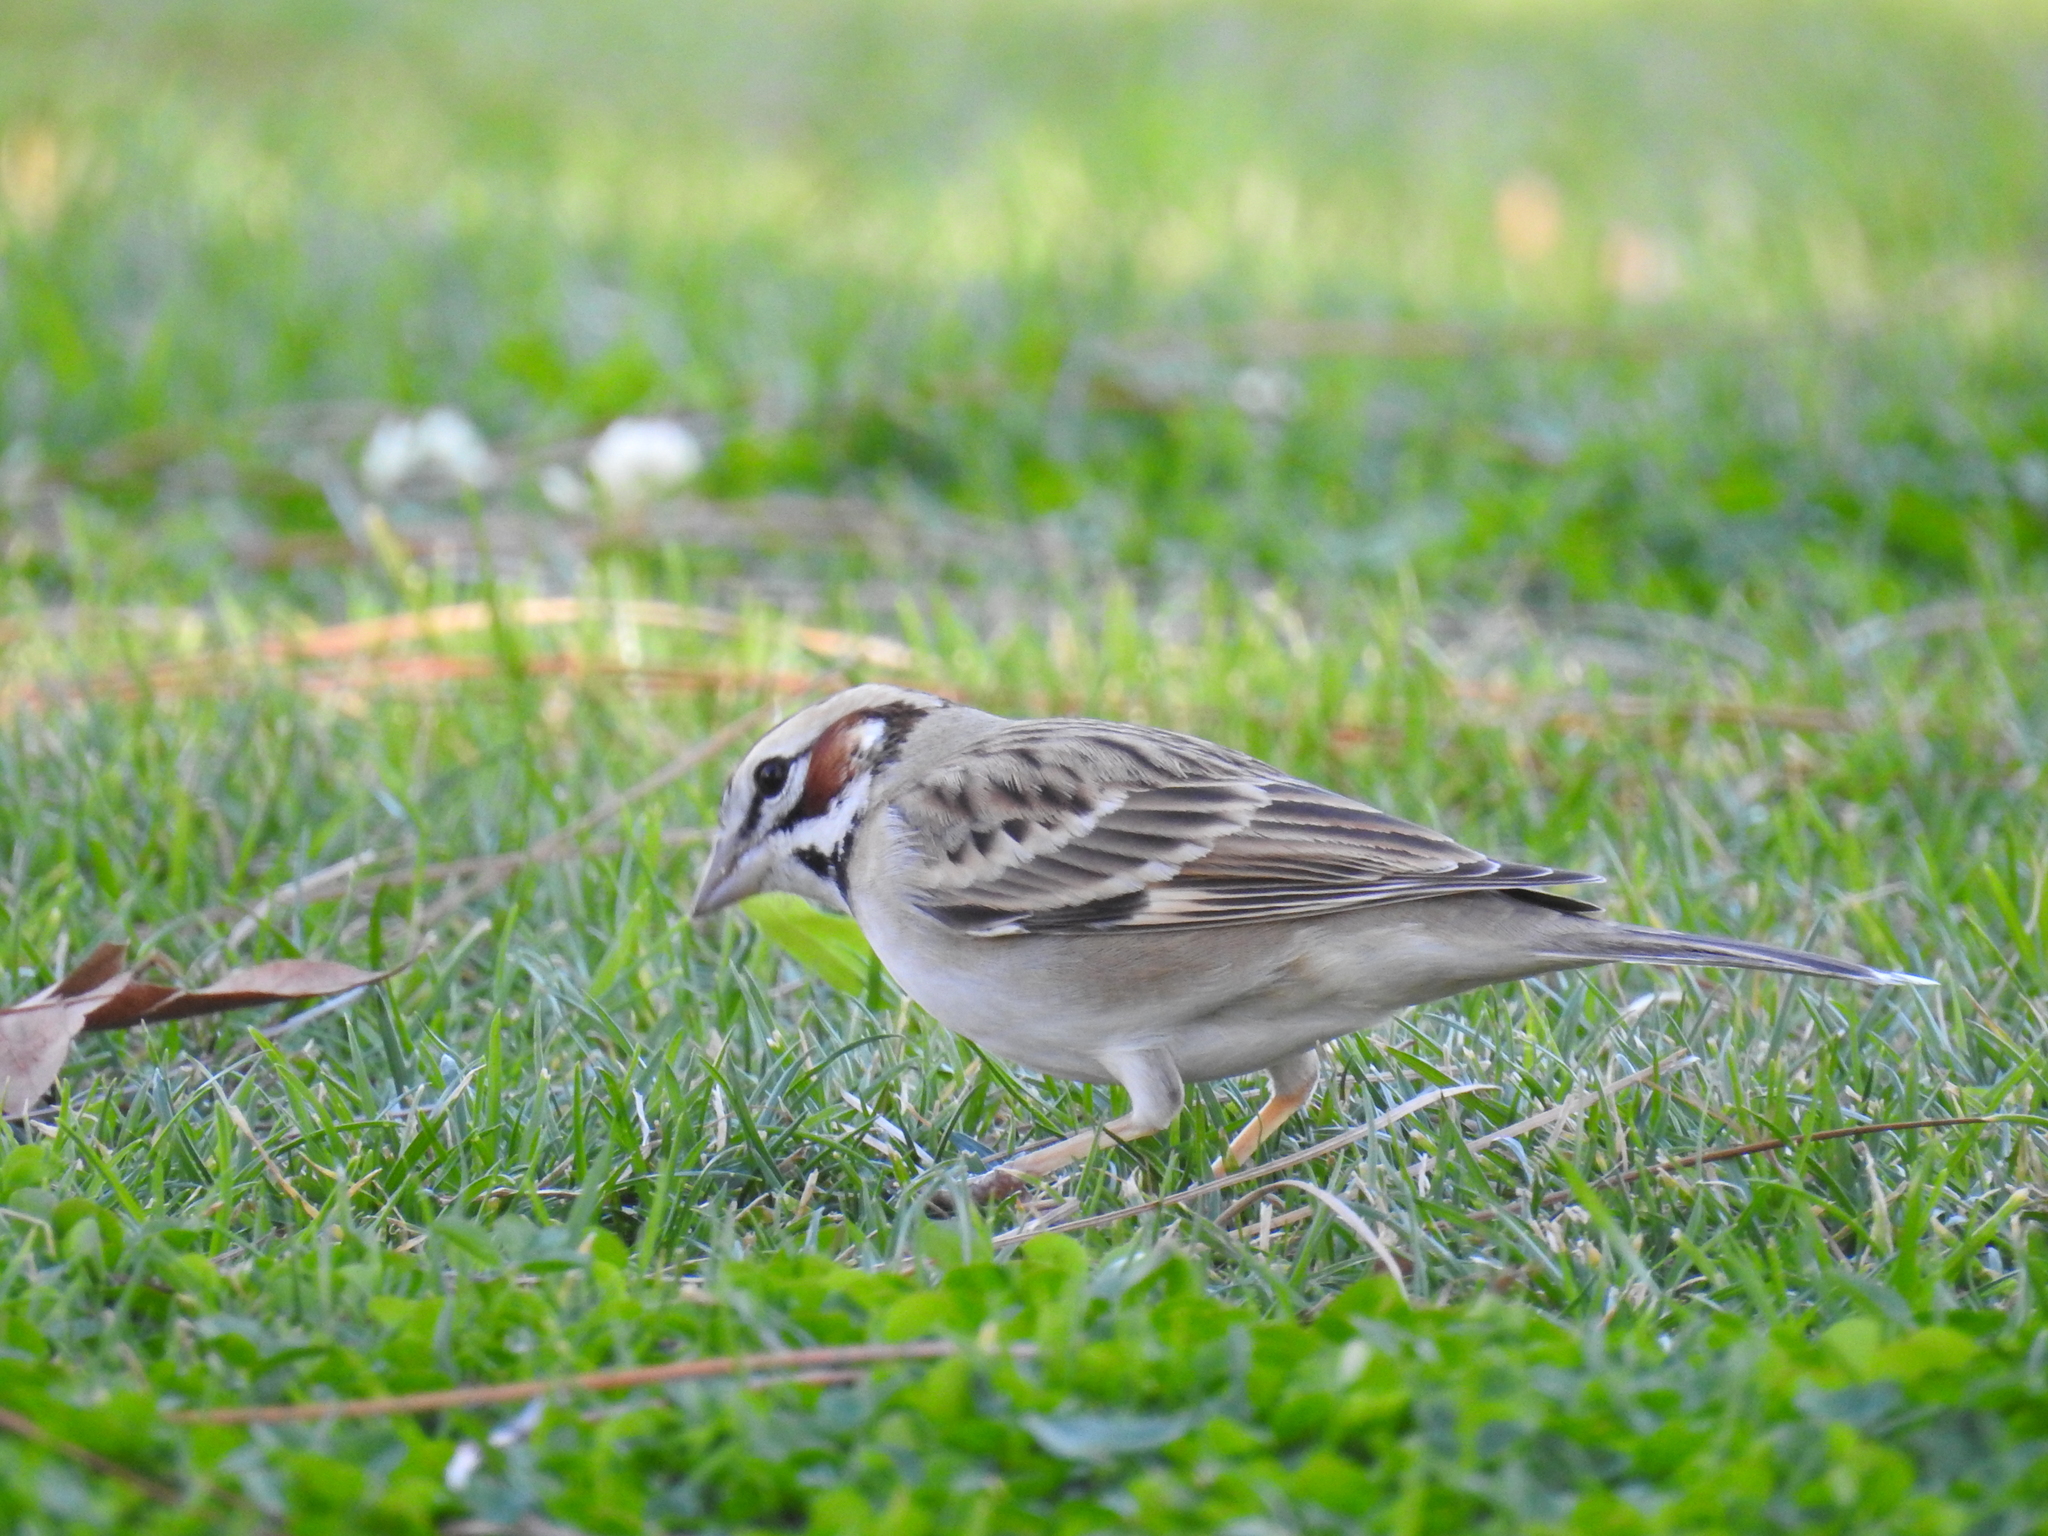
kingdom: Animalia
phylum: Chordata
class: Aves
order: Passeriformes
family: Passerellidae
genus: Chondestes
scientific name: Chondestes grammacus
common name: Lark sparrow
